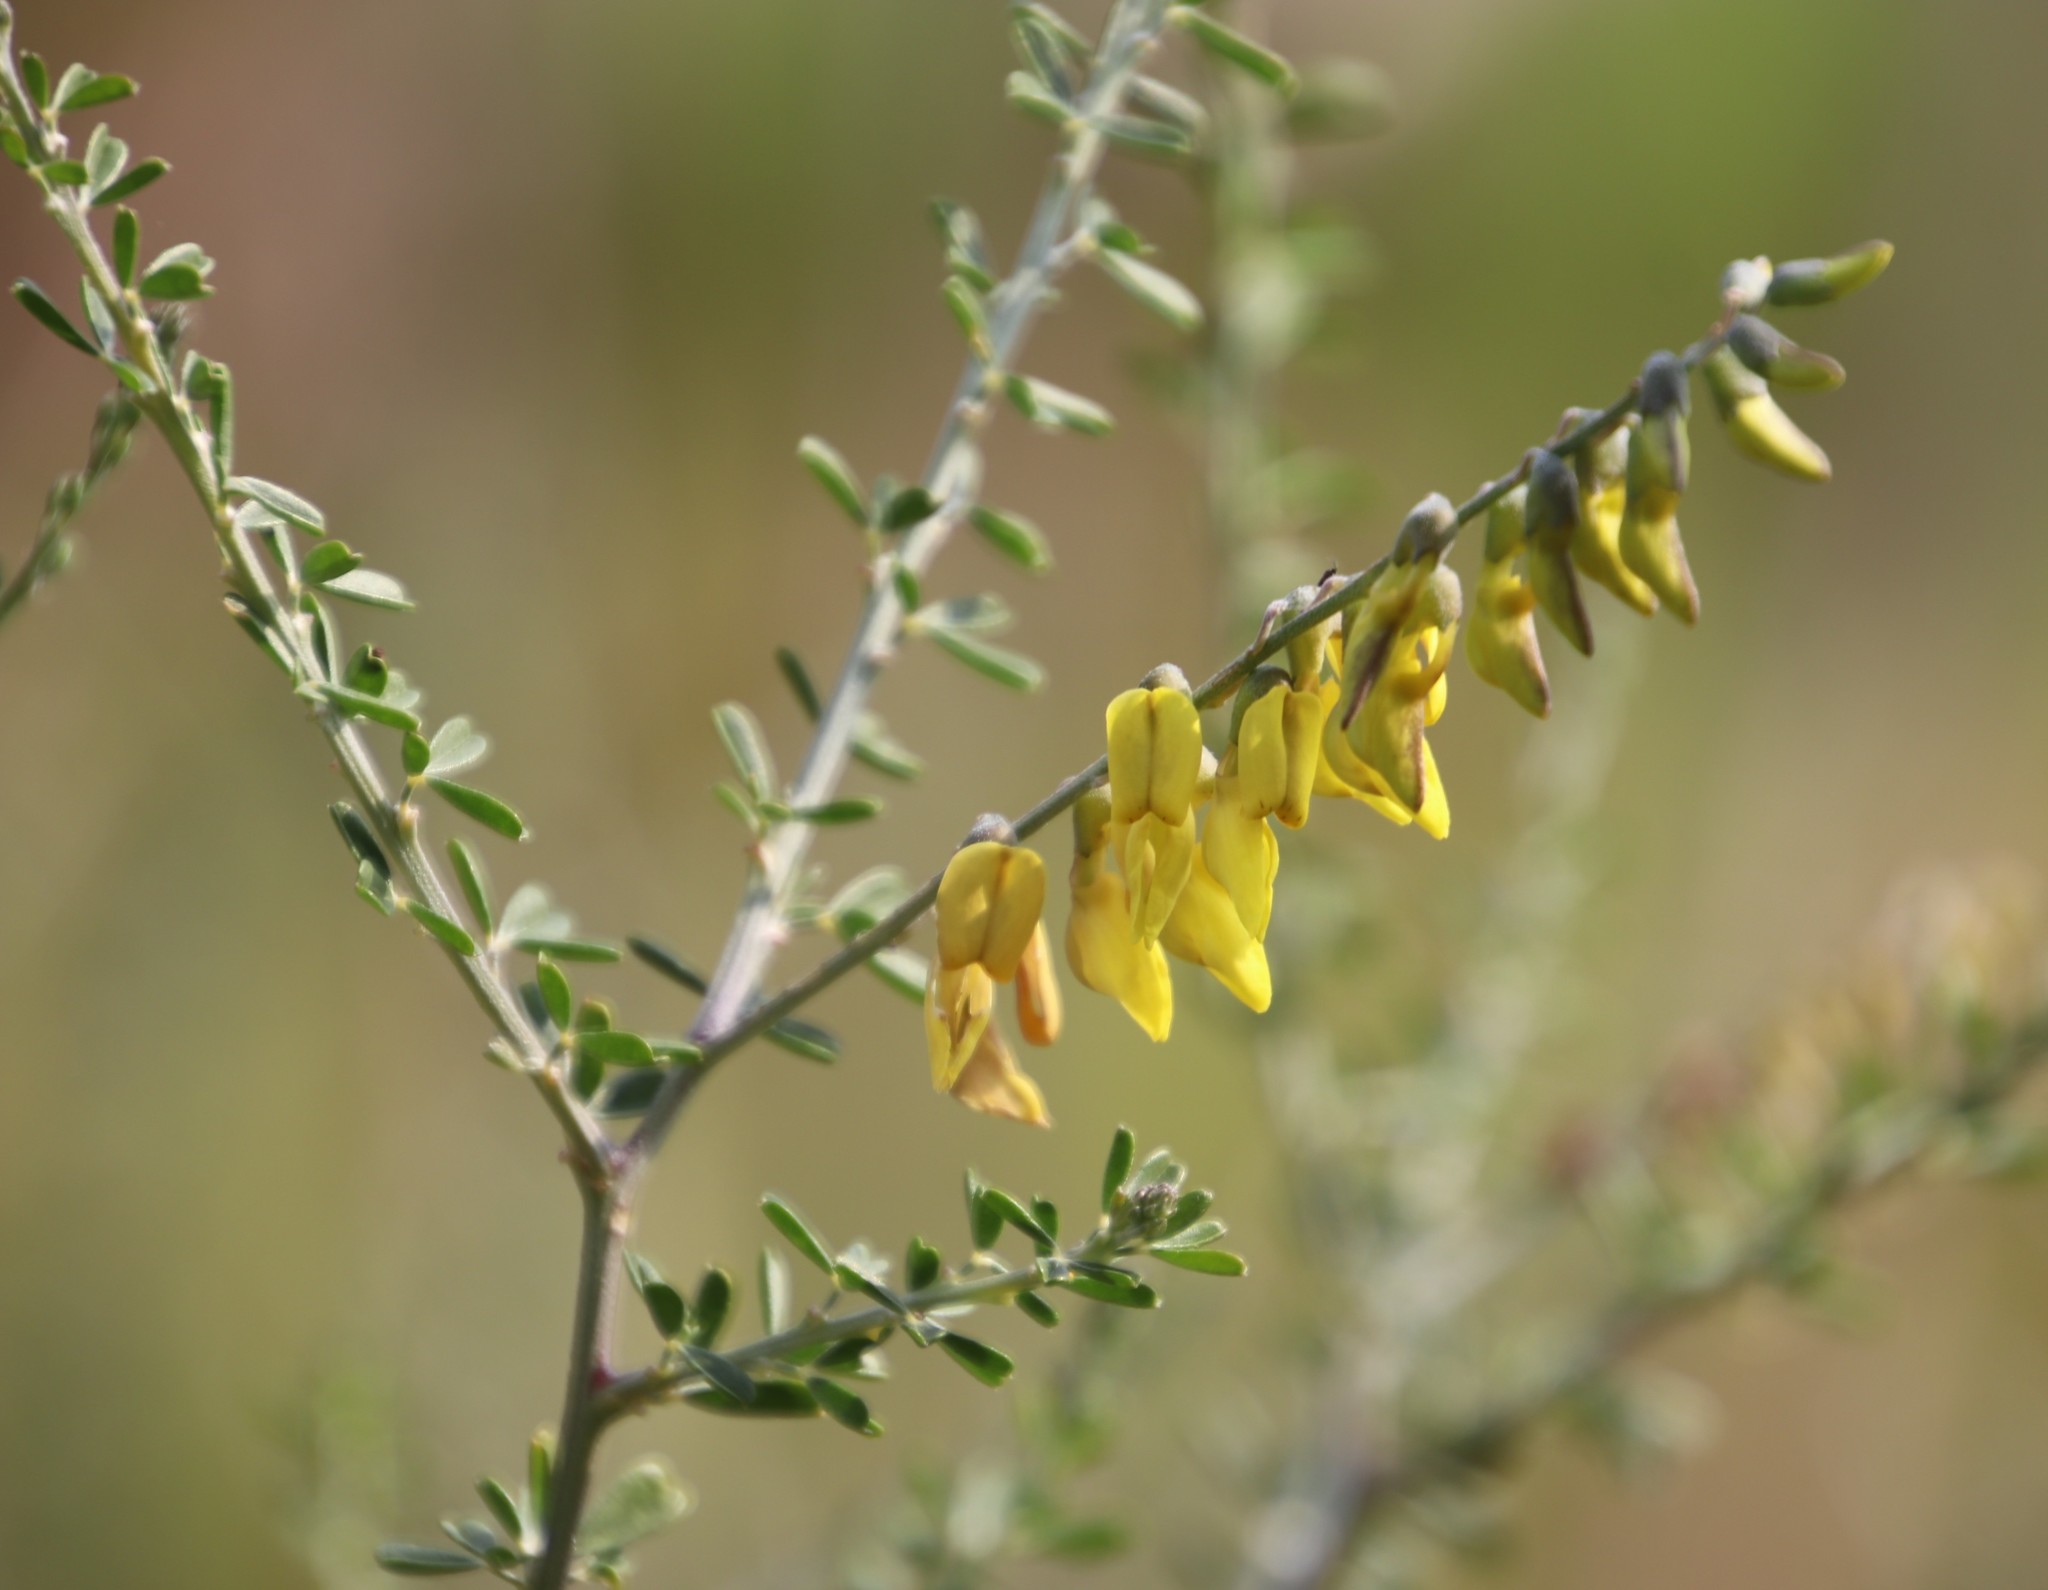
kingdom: Plantae
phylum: Tracheophyta
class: Magnoliopsida
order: Fabales
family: Fabaceae
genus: Wiborgia
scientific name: Wiborgia obcordata
